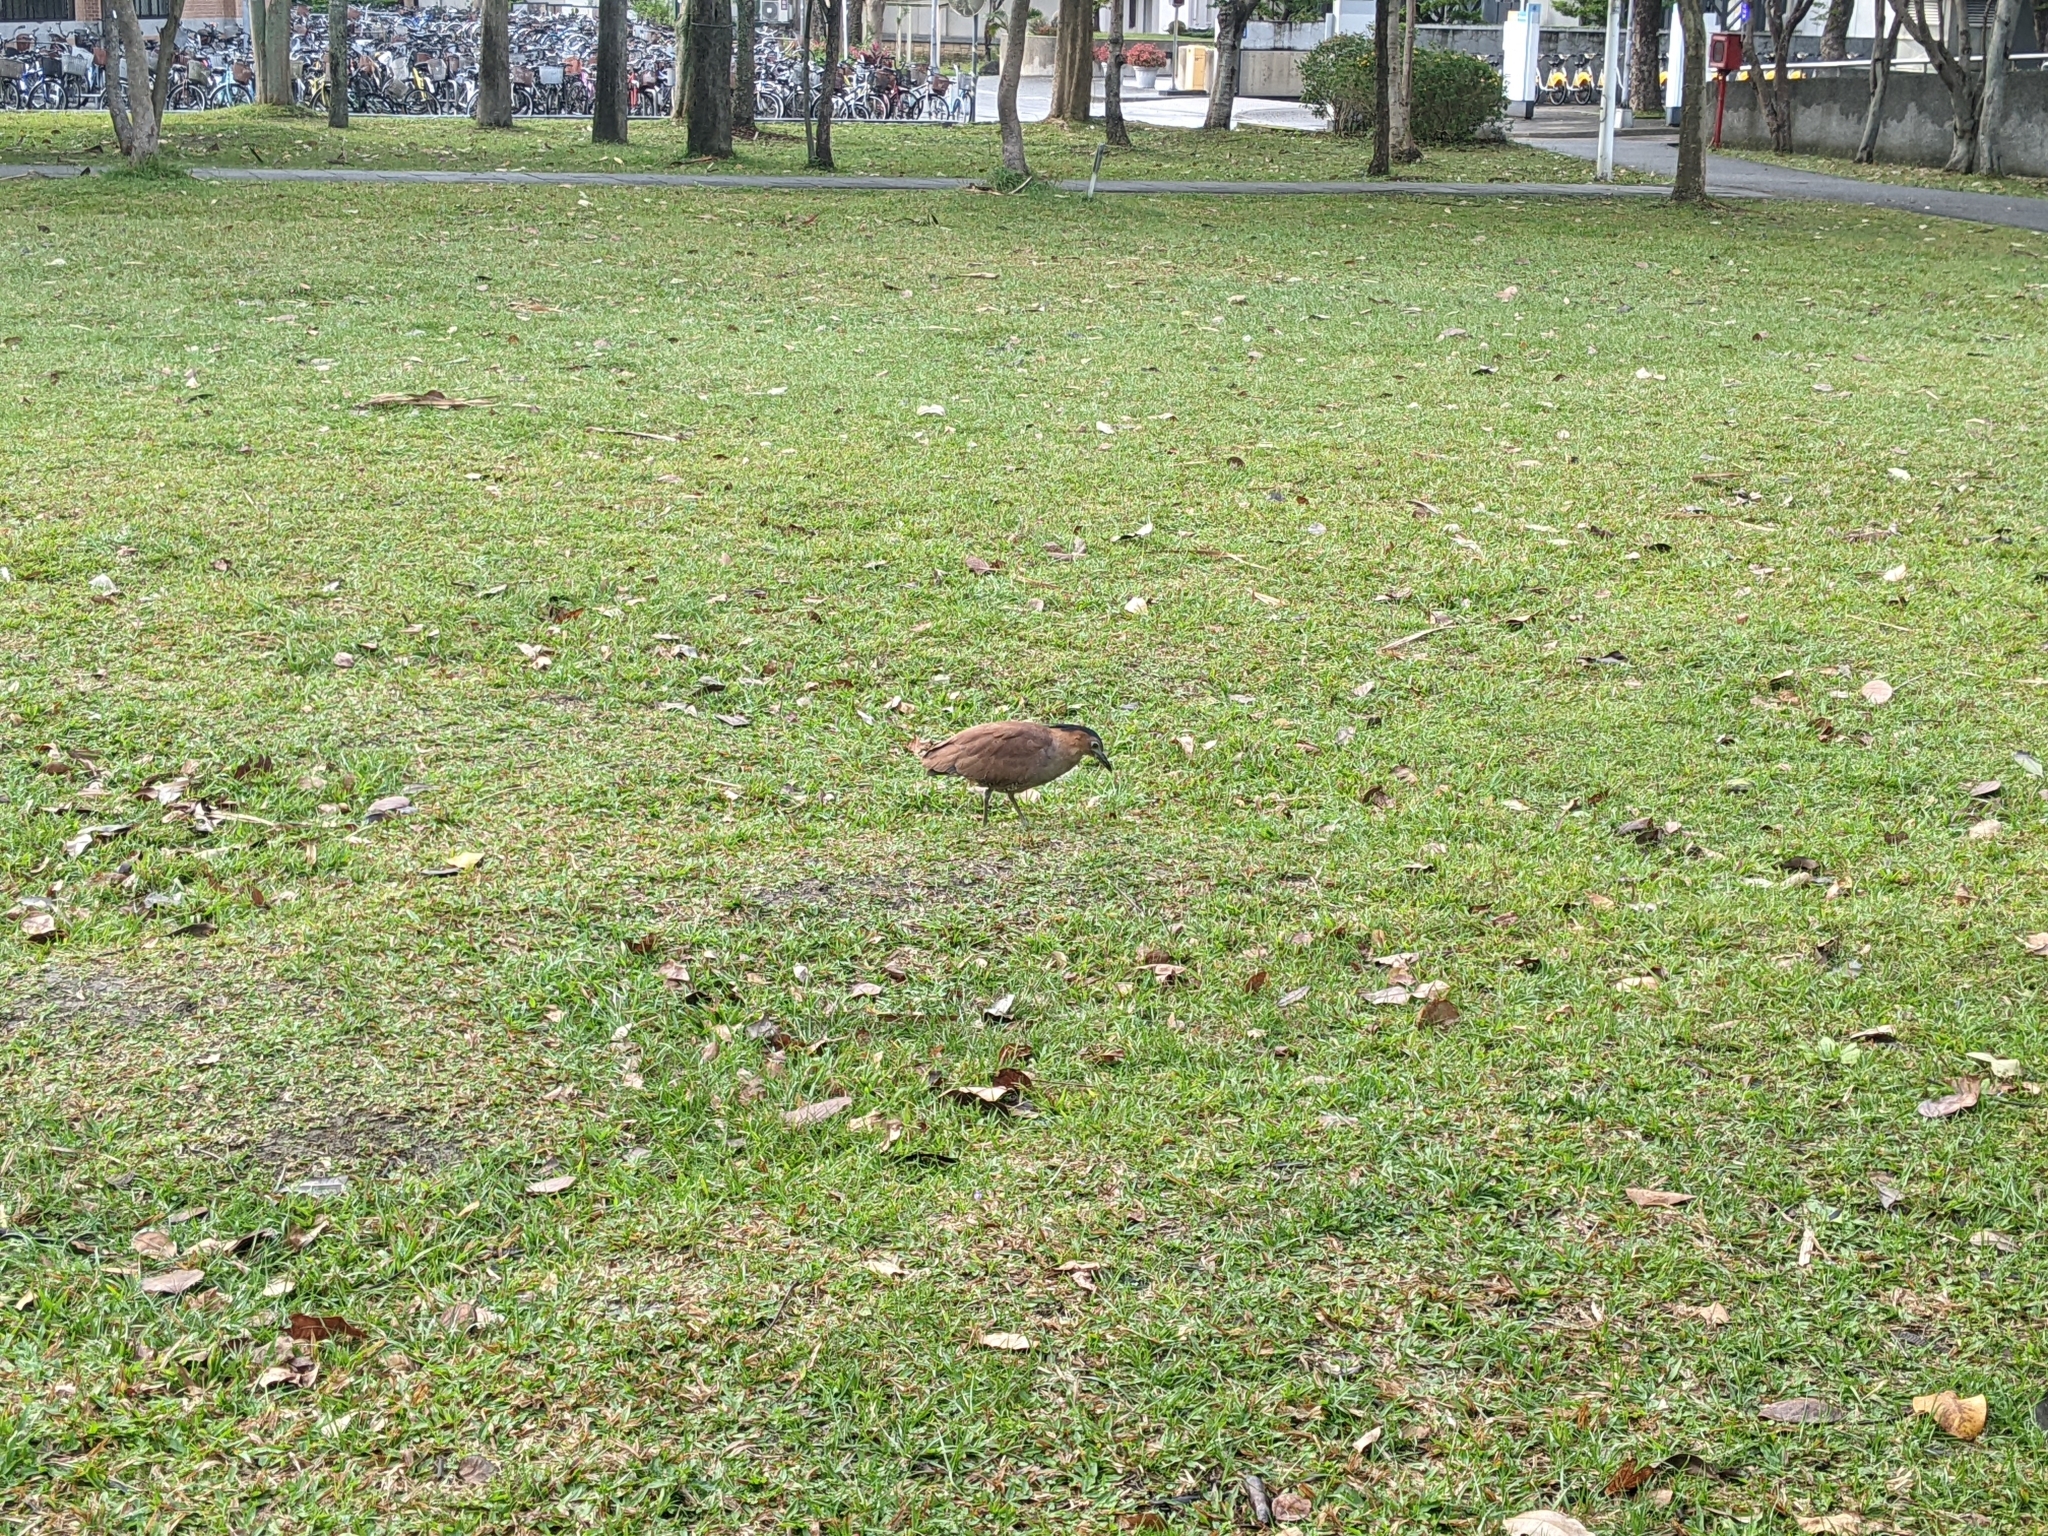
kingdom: Animalia
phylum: Chordata
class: Aves
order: Pelecaniformes
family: Ardeidae
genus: Gorsachius
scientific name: Gorsachius melanolophus
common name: Malayan night heron
